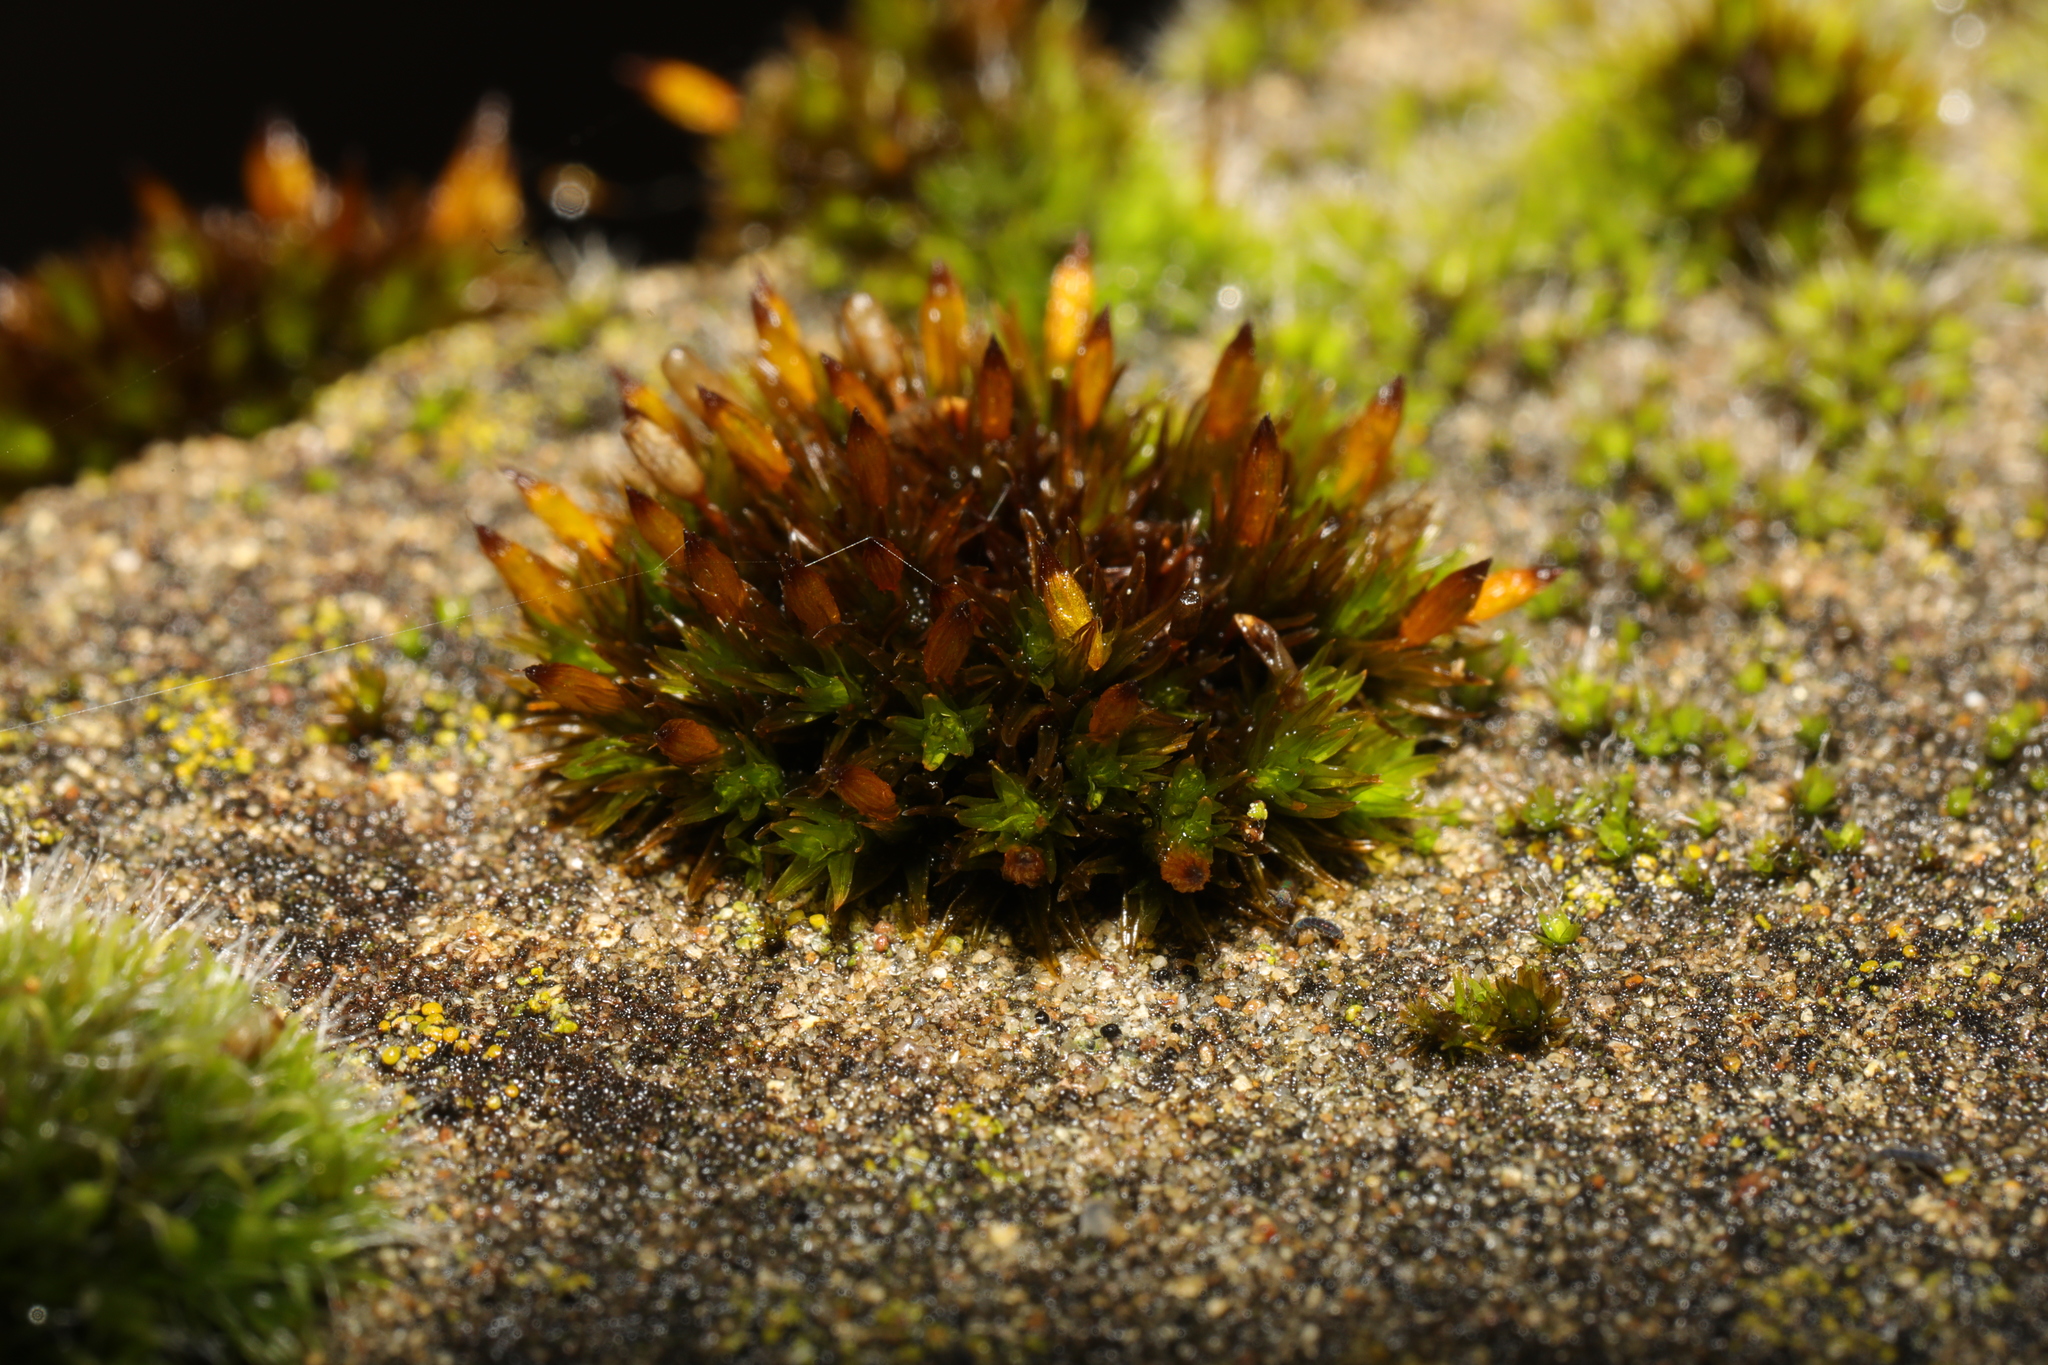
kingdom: Plantae
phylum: Bryophyta
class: Bryopsida
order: Orthotrichales
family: Orthotrichaceae
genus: Orthotrichum
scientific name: Orthotrichum anomalum
